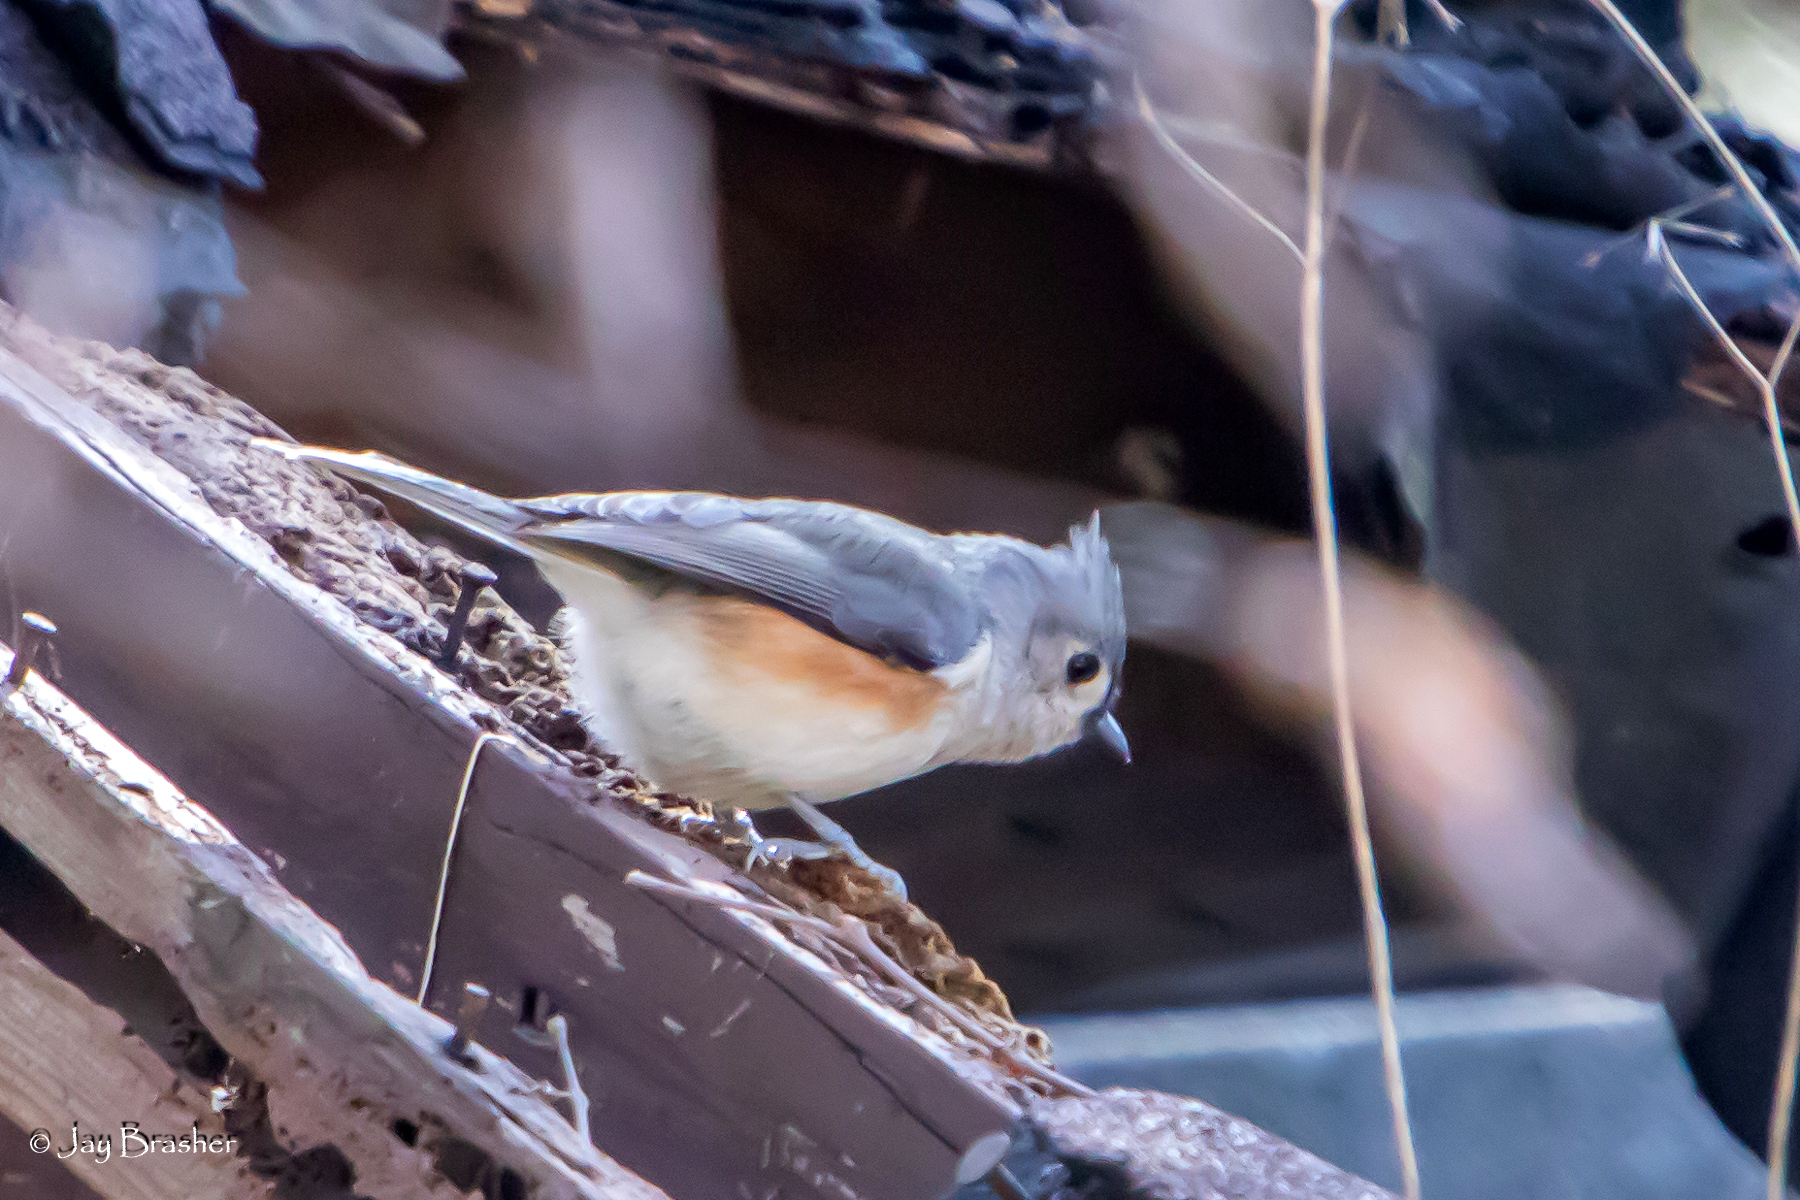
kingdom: Animalia
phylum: Chordata
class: Aves
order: Passeriformes
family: Paridae
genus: Baeolophus
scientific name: Baeolophus bicolor
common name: Tufted titmouse
